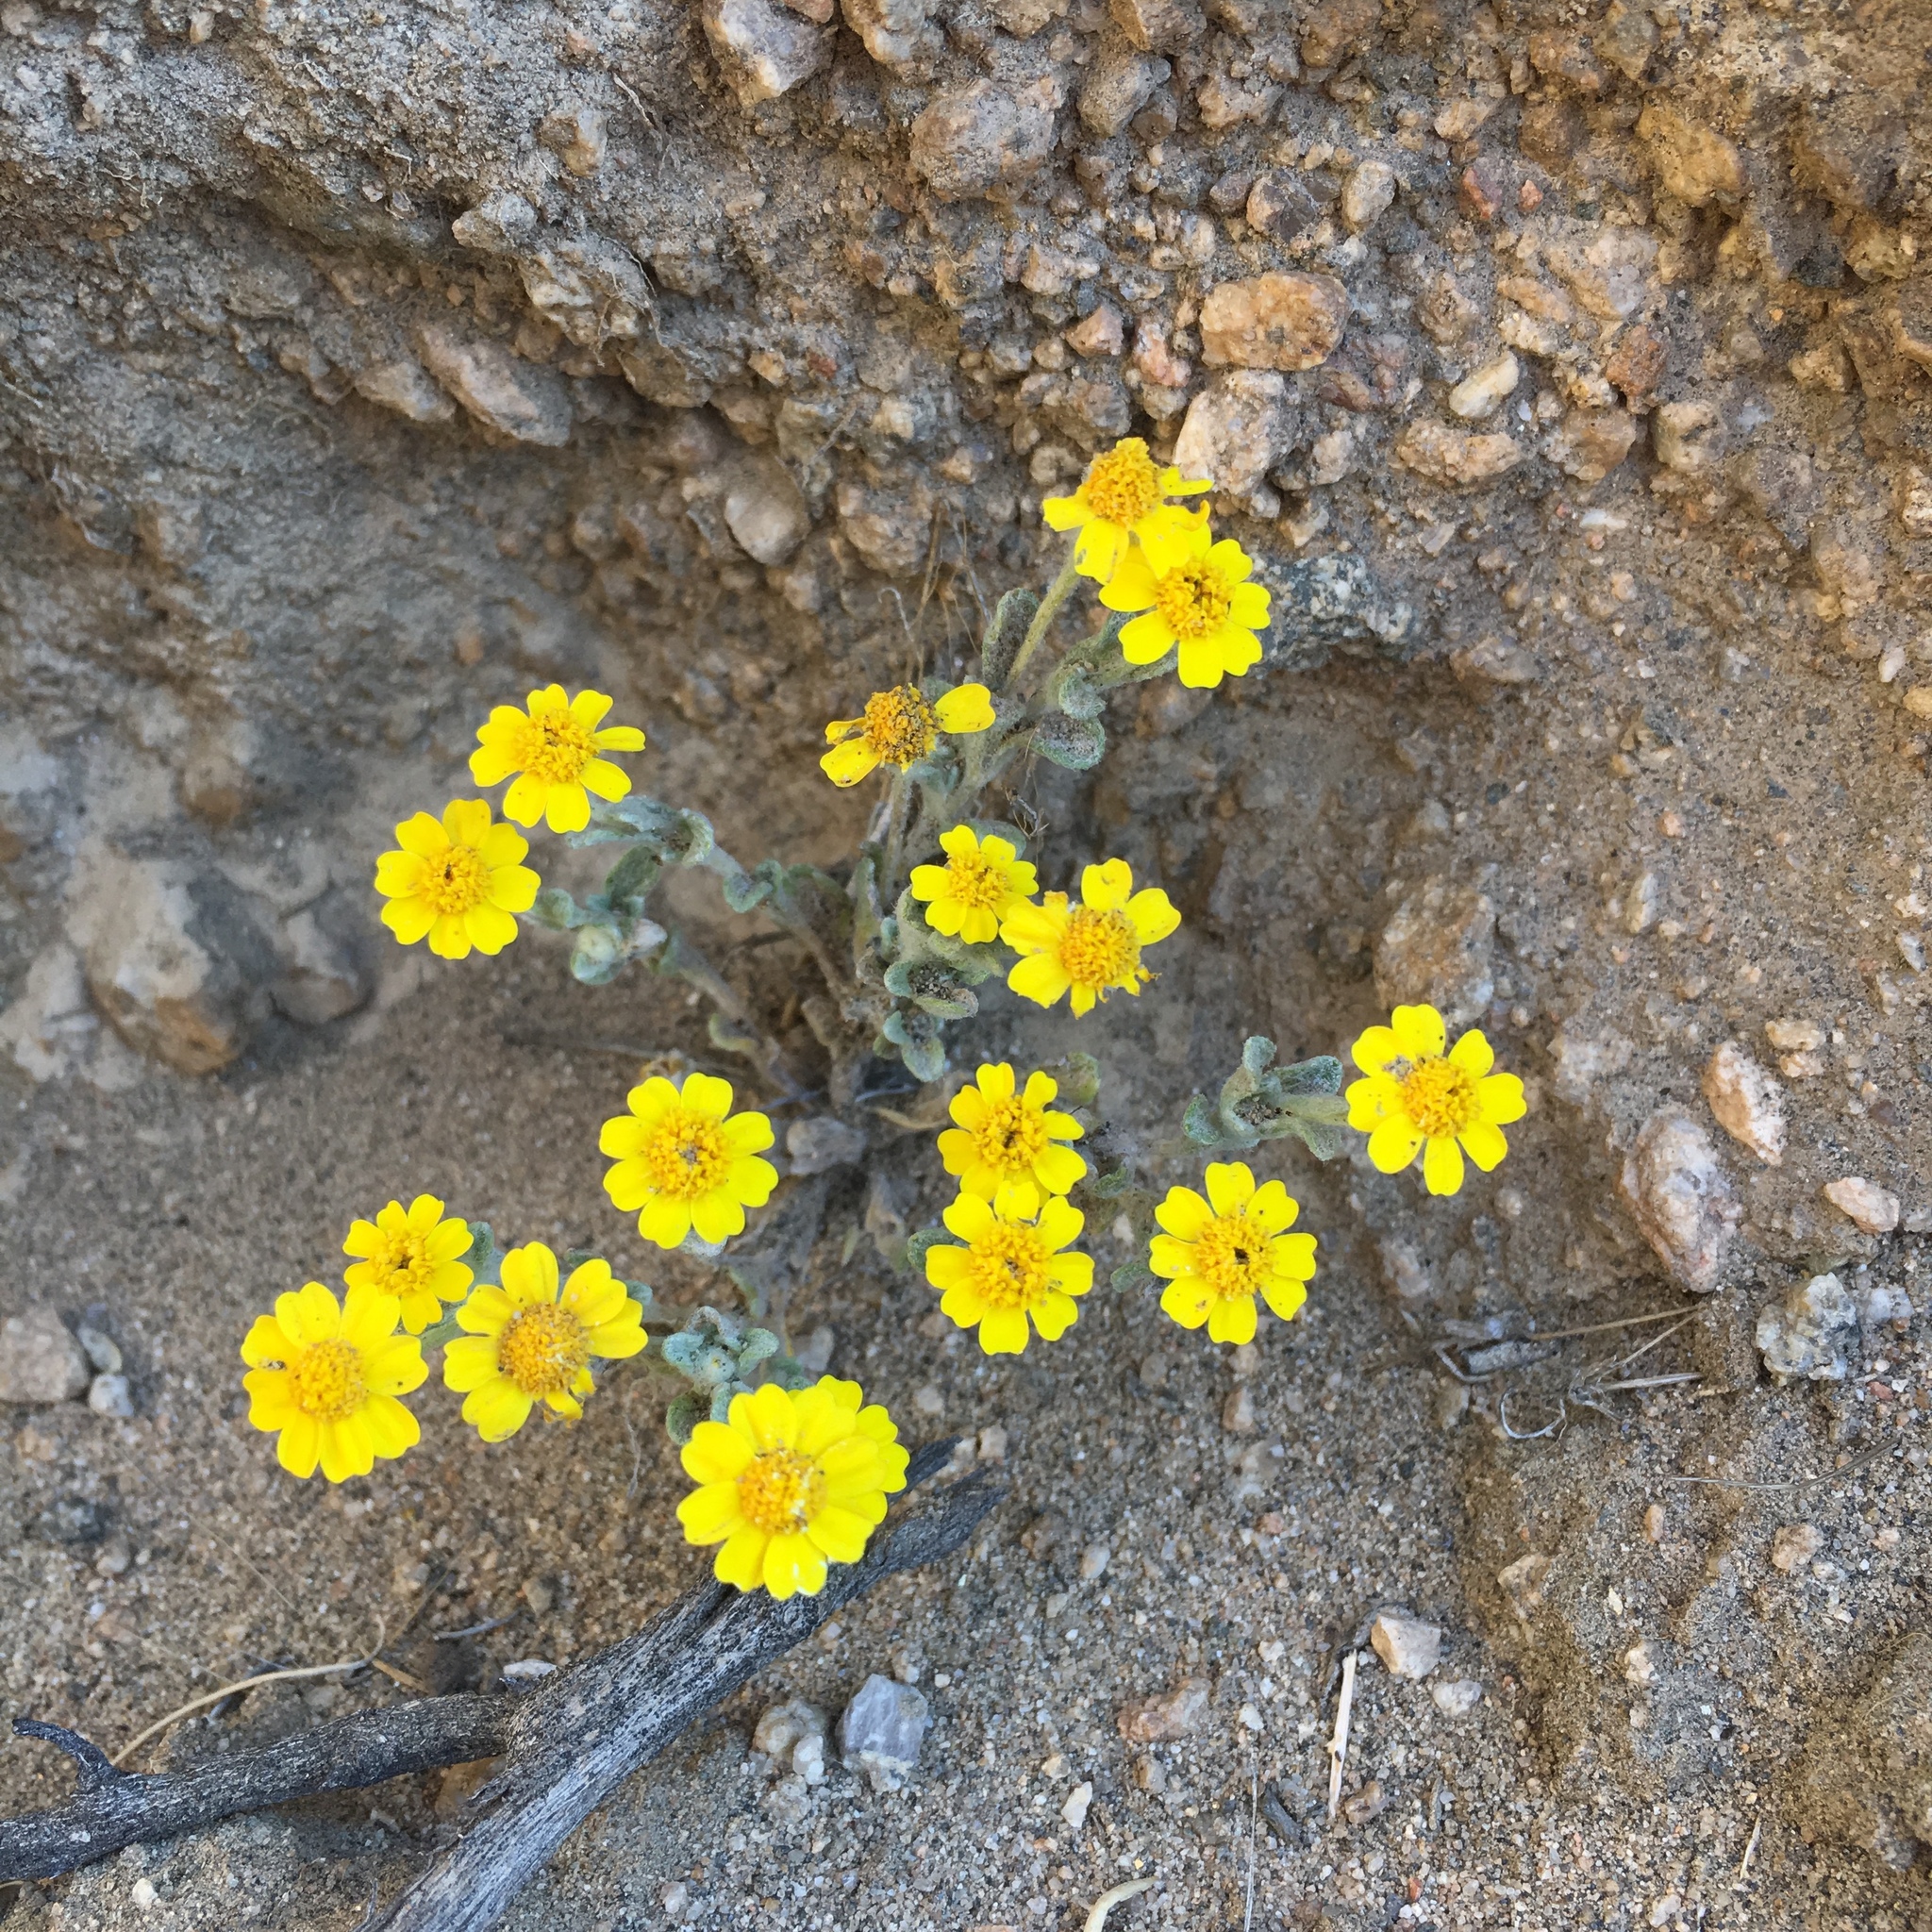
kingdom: Plantae
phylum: Tracheophyta
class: Magnoliopsida
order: Asterales
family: Asteraceae
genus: Eriophyllum
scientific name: Eriophyllum ambiguum
